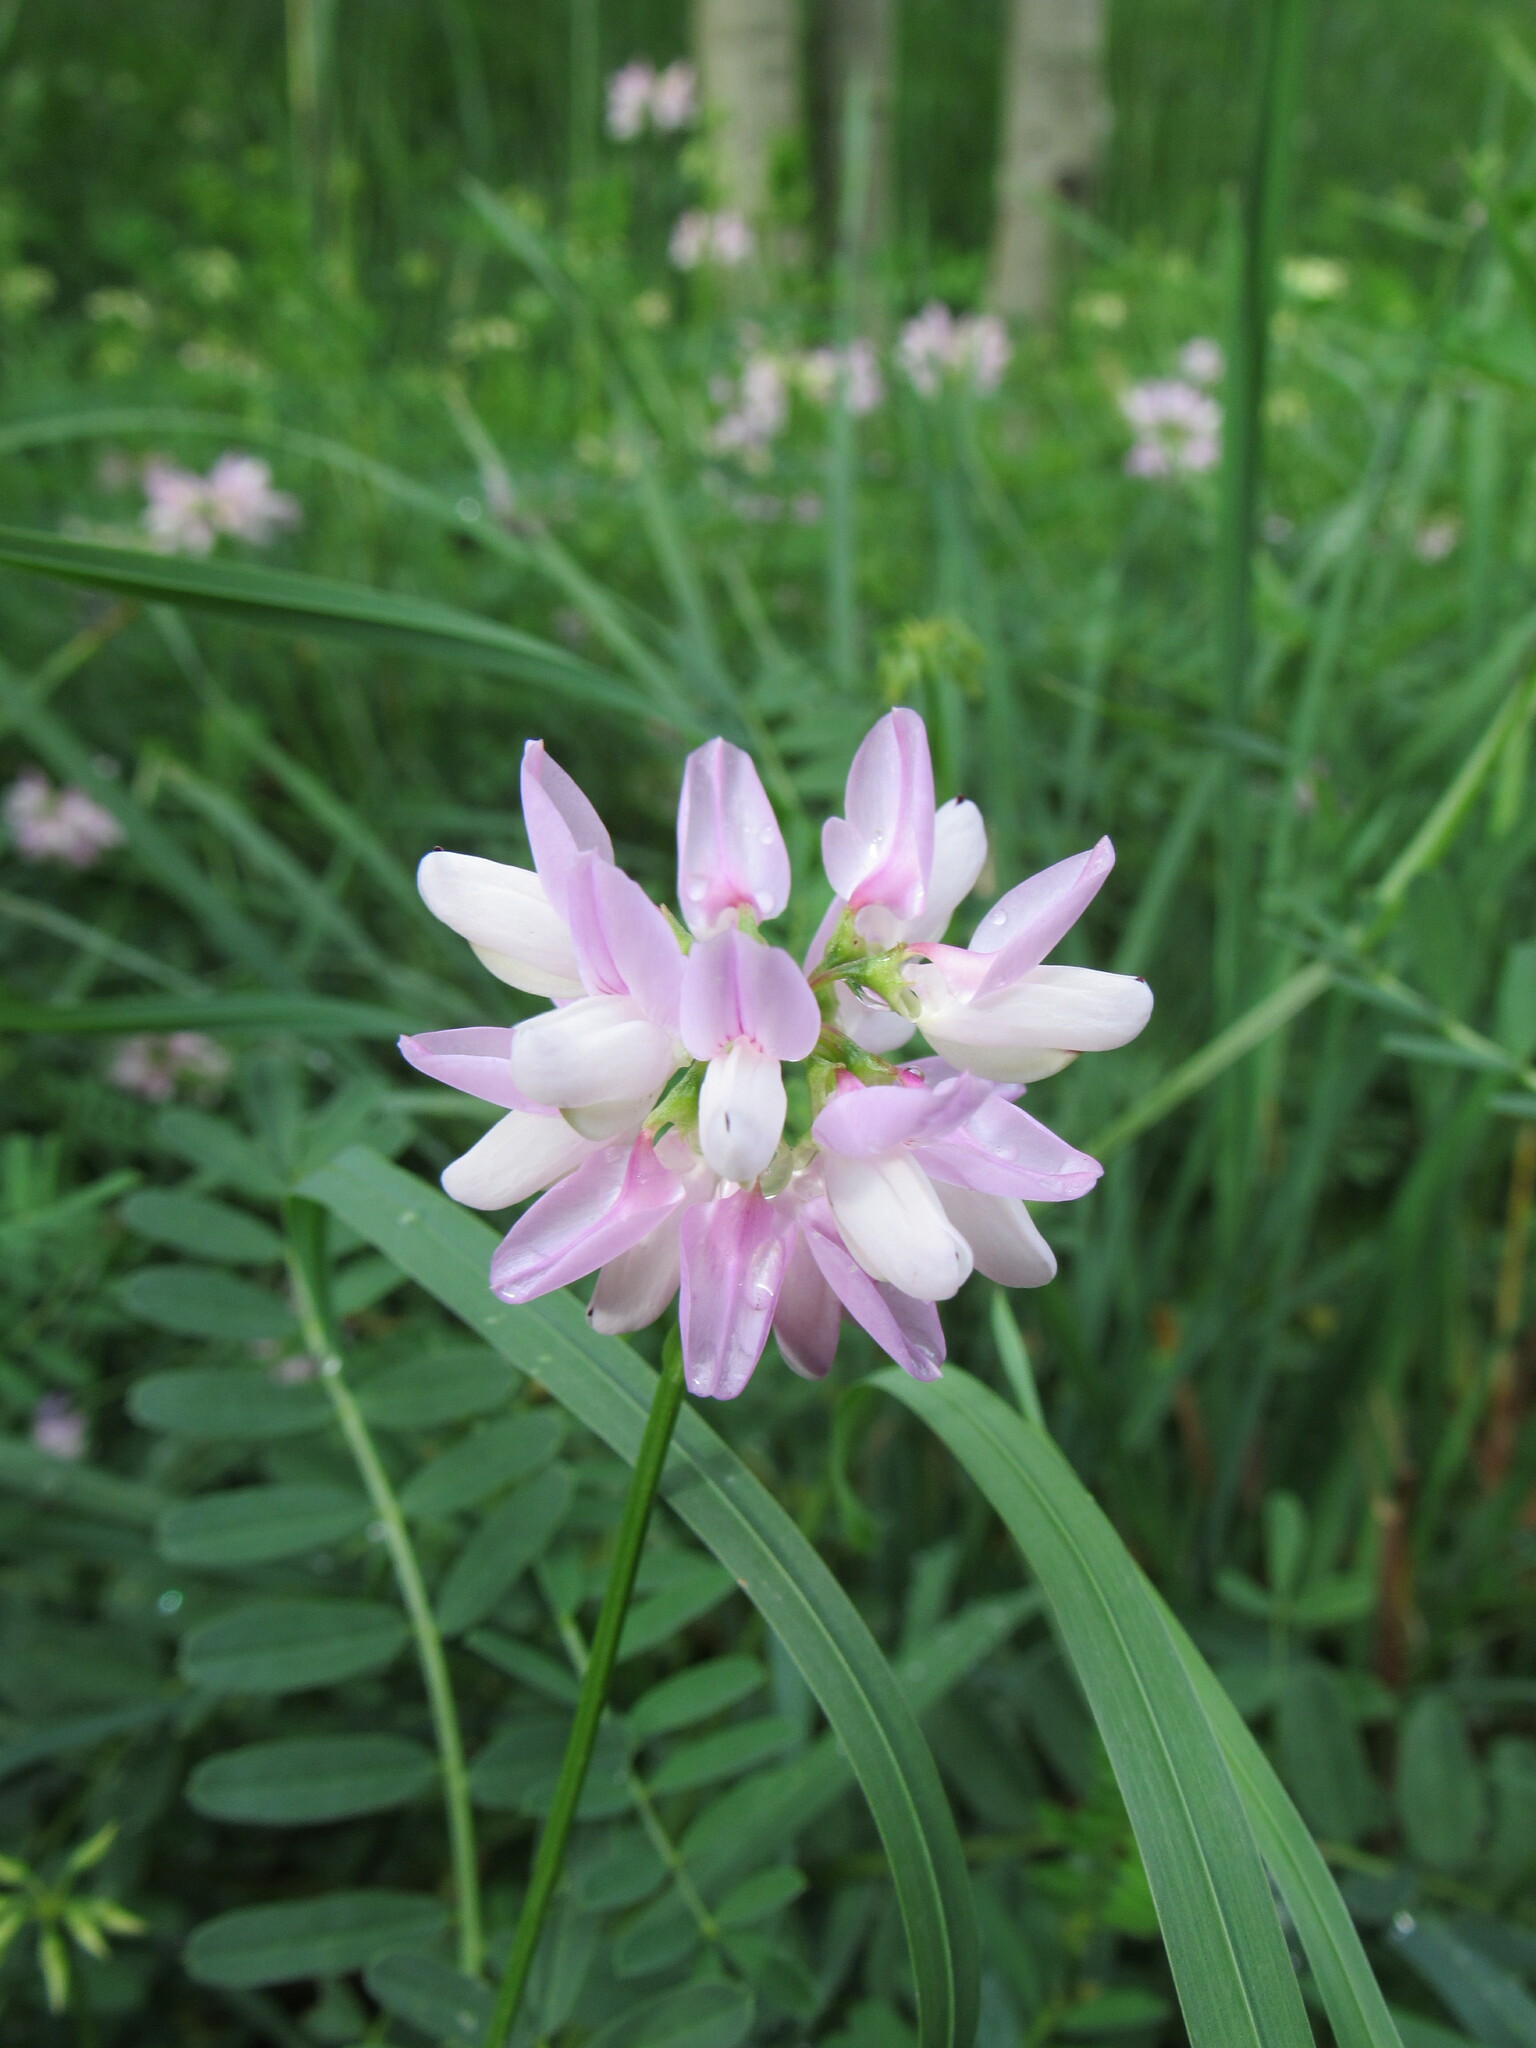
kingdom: Plantae
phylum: Tracheophyta
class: Magnoliopsida
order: Fabales
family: Fabaceae
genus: Coronilla
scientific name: Coronilla varia
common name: Crownvetch
